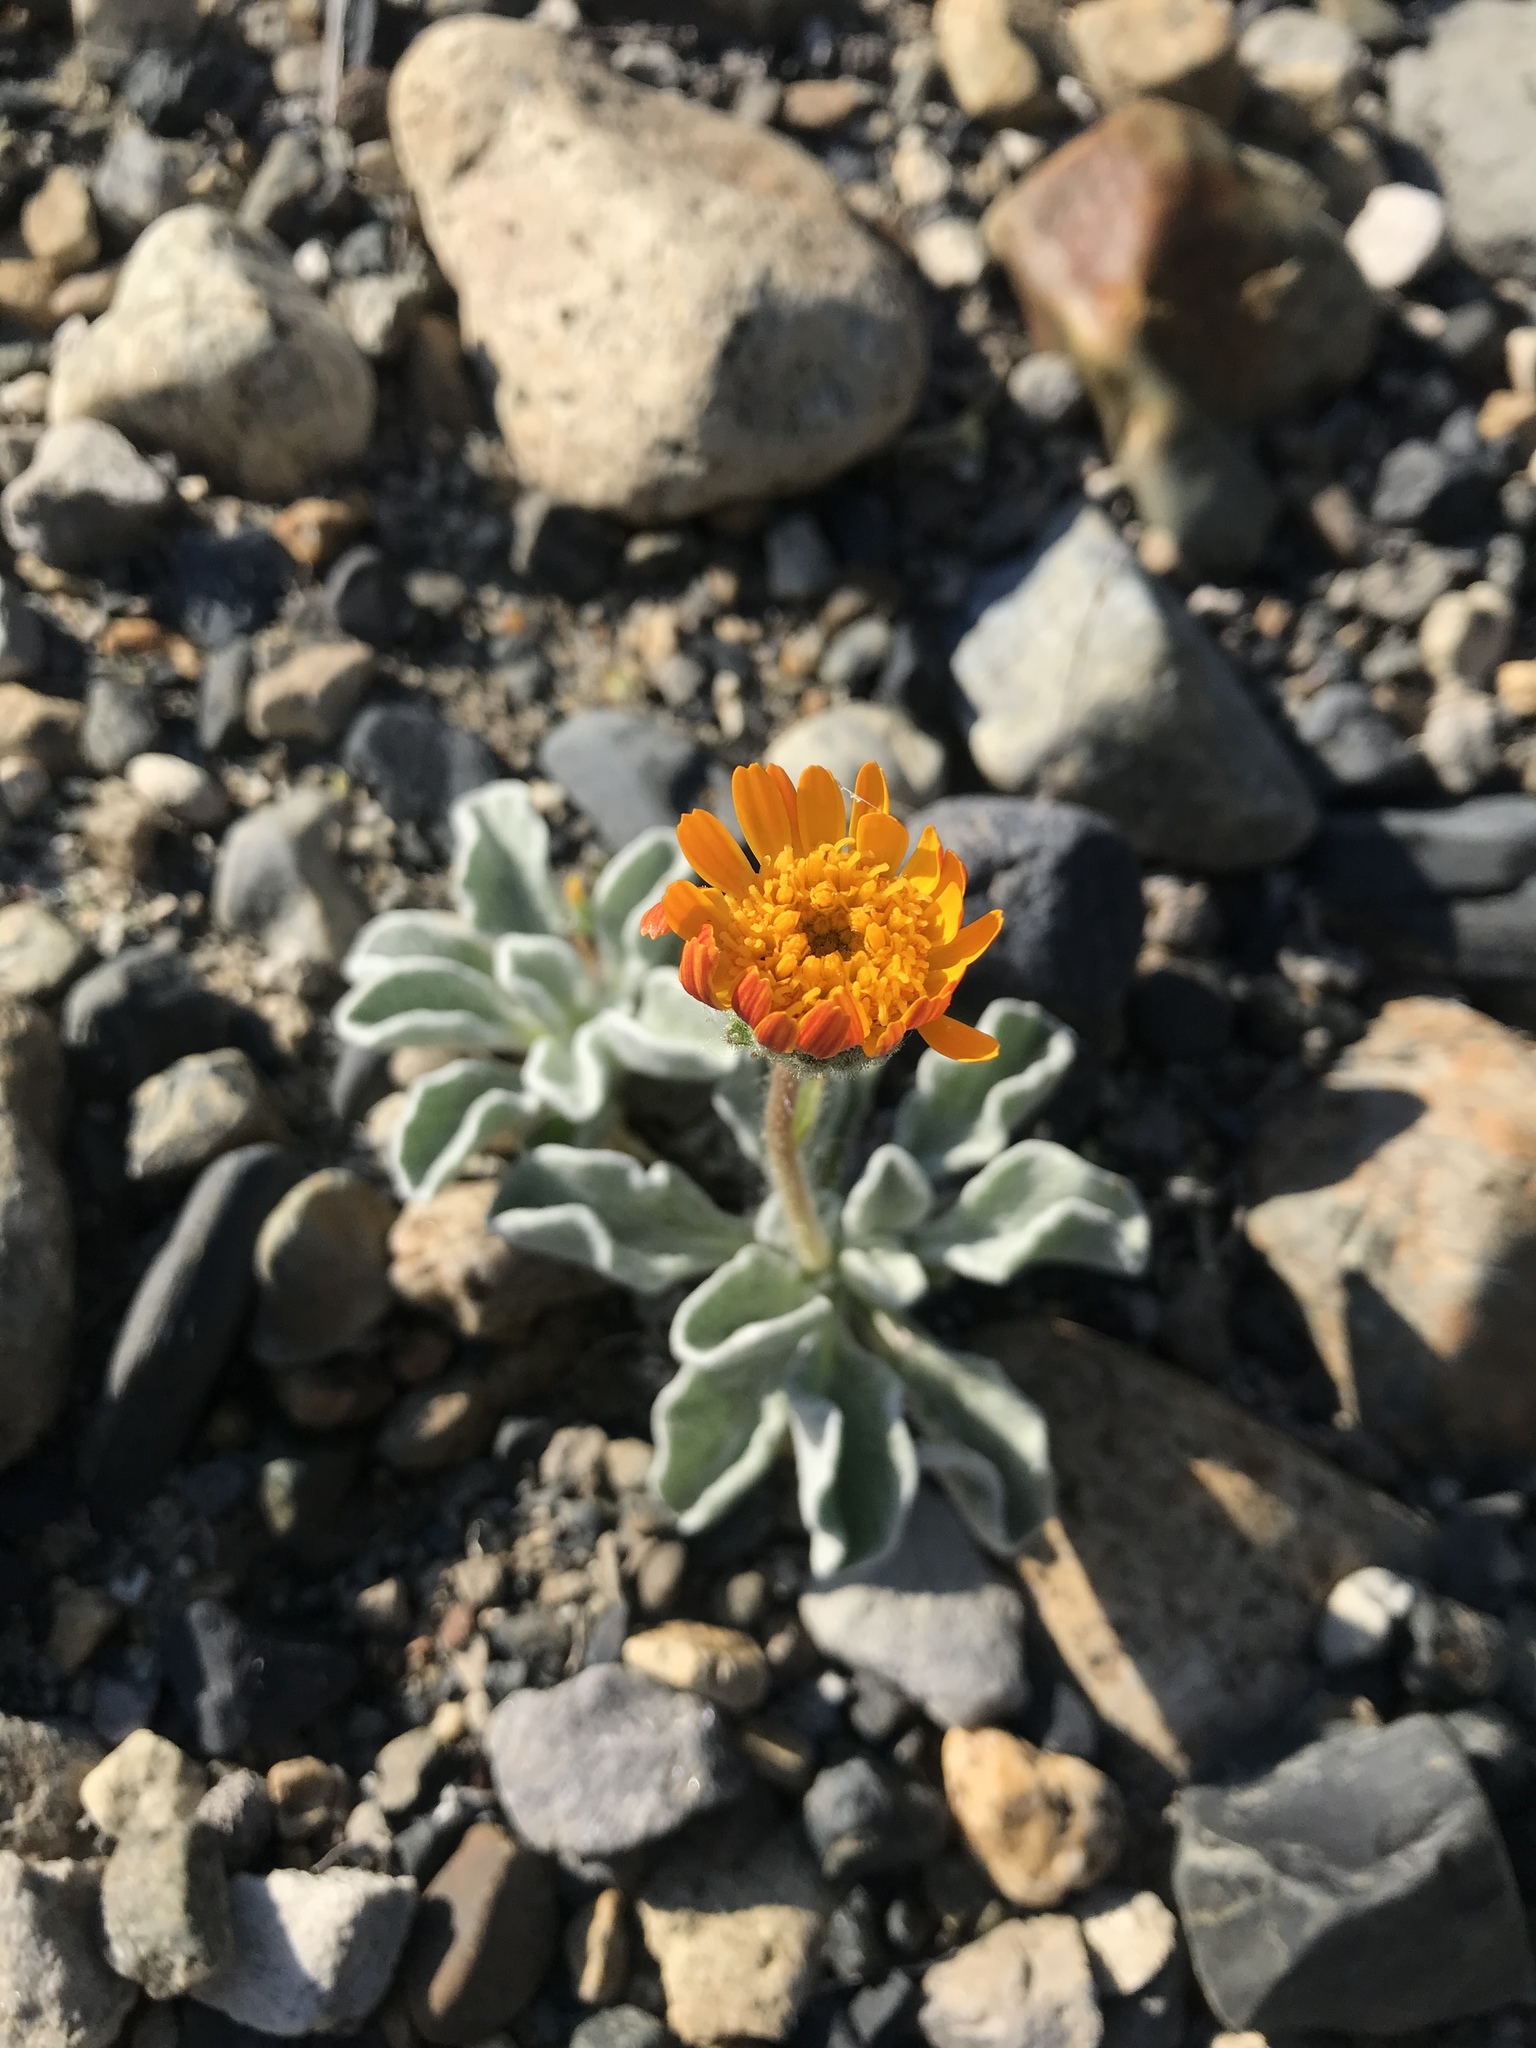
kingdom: Plantae
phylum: Tracheophyta
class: Magnoliopsida
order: Asterales
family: Asteraceae
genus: Hulsea
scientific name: Hulsea vestita
